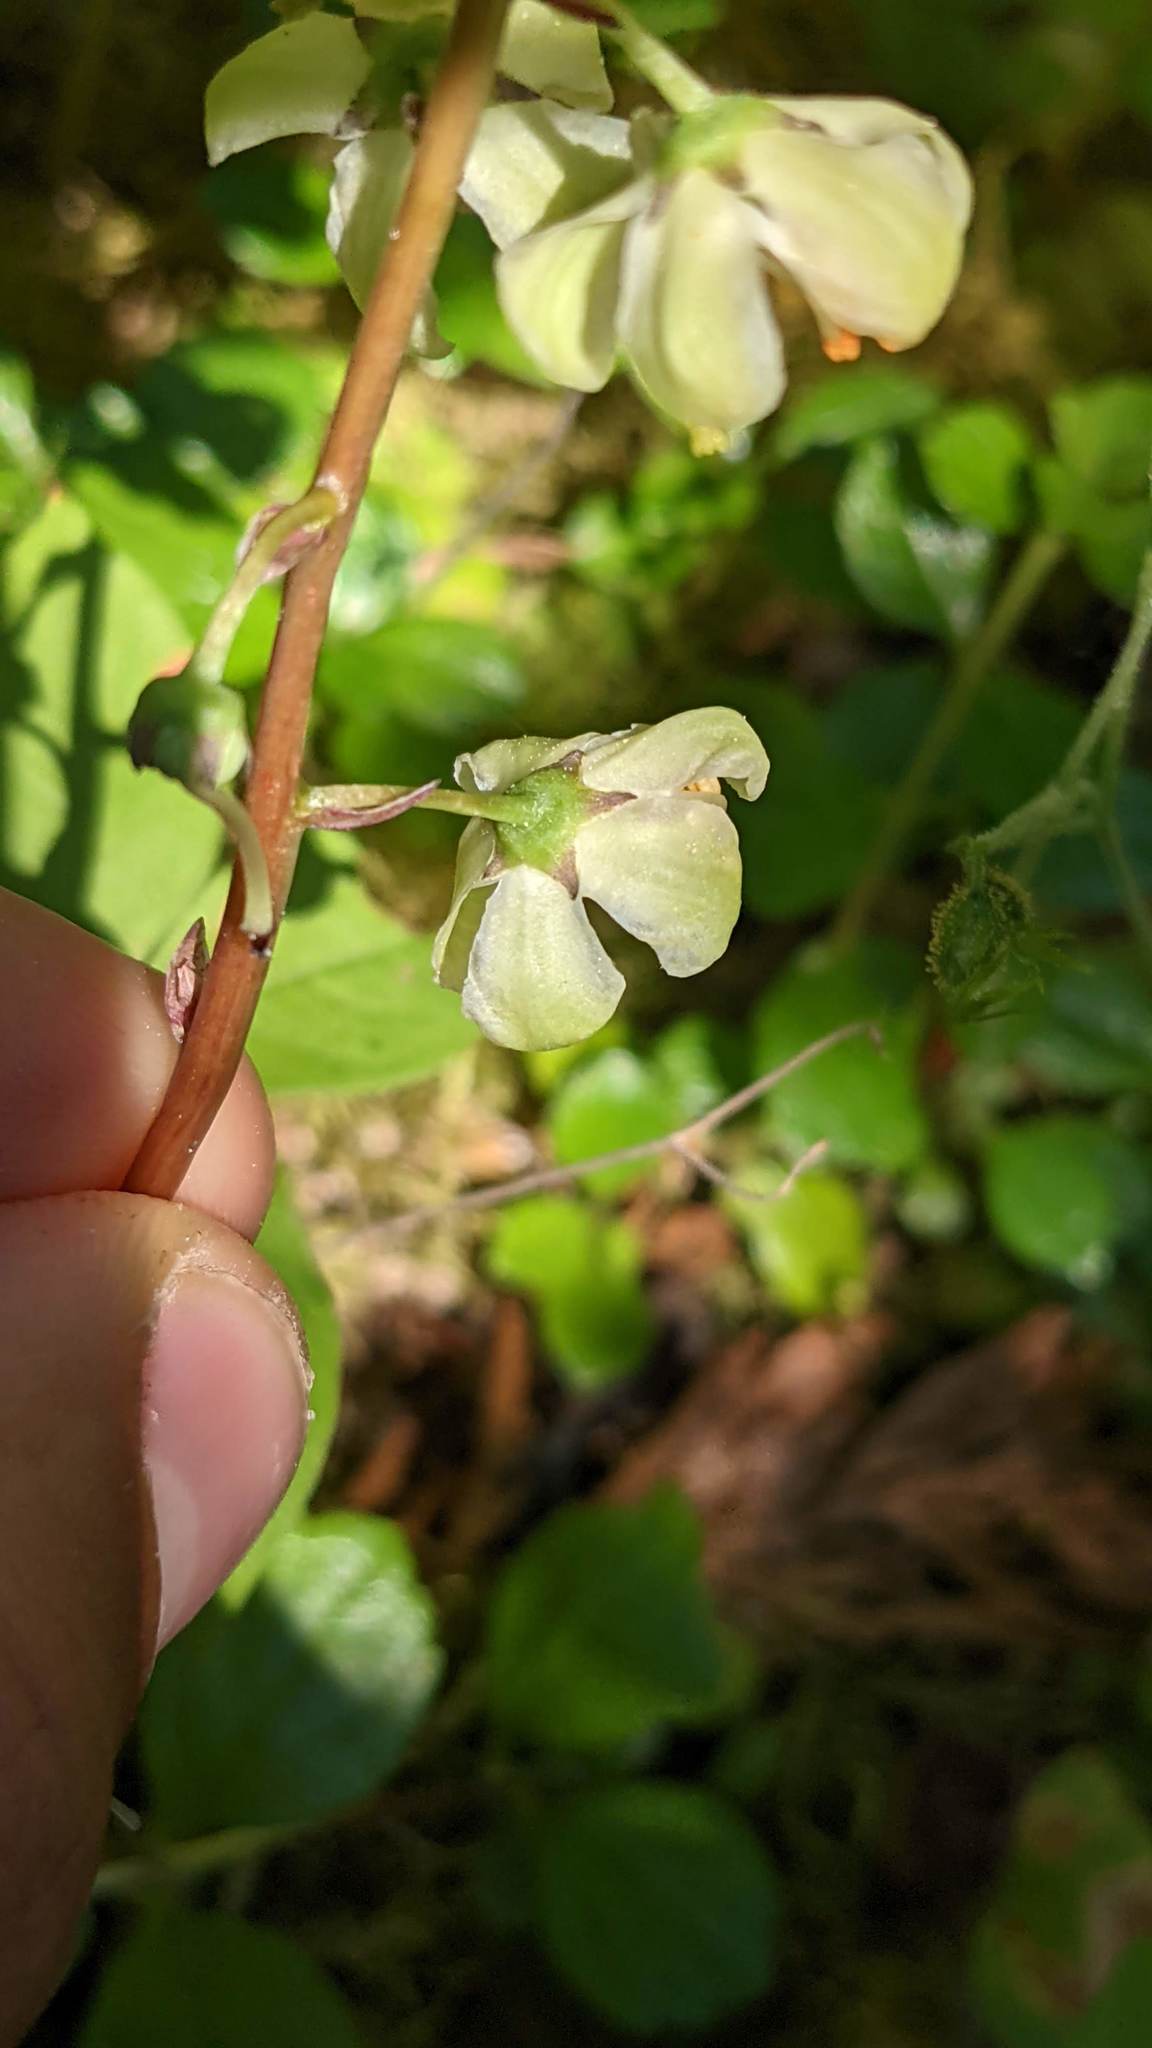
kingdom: Plantae
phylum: Tracheophyta
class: Magnoliopsida
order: Ericales
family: Ericaceae
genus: Pyrola
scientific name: Pyrola picta
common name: White-vein wintergreen
